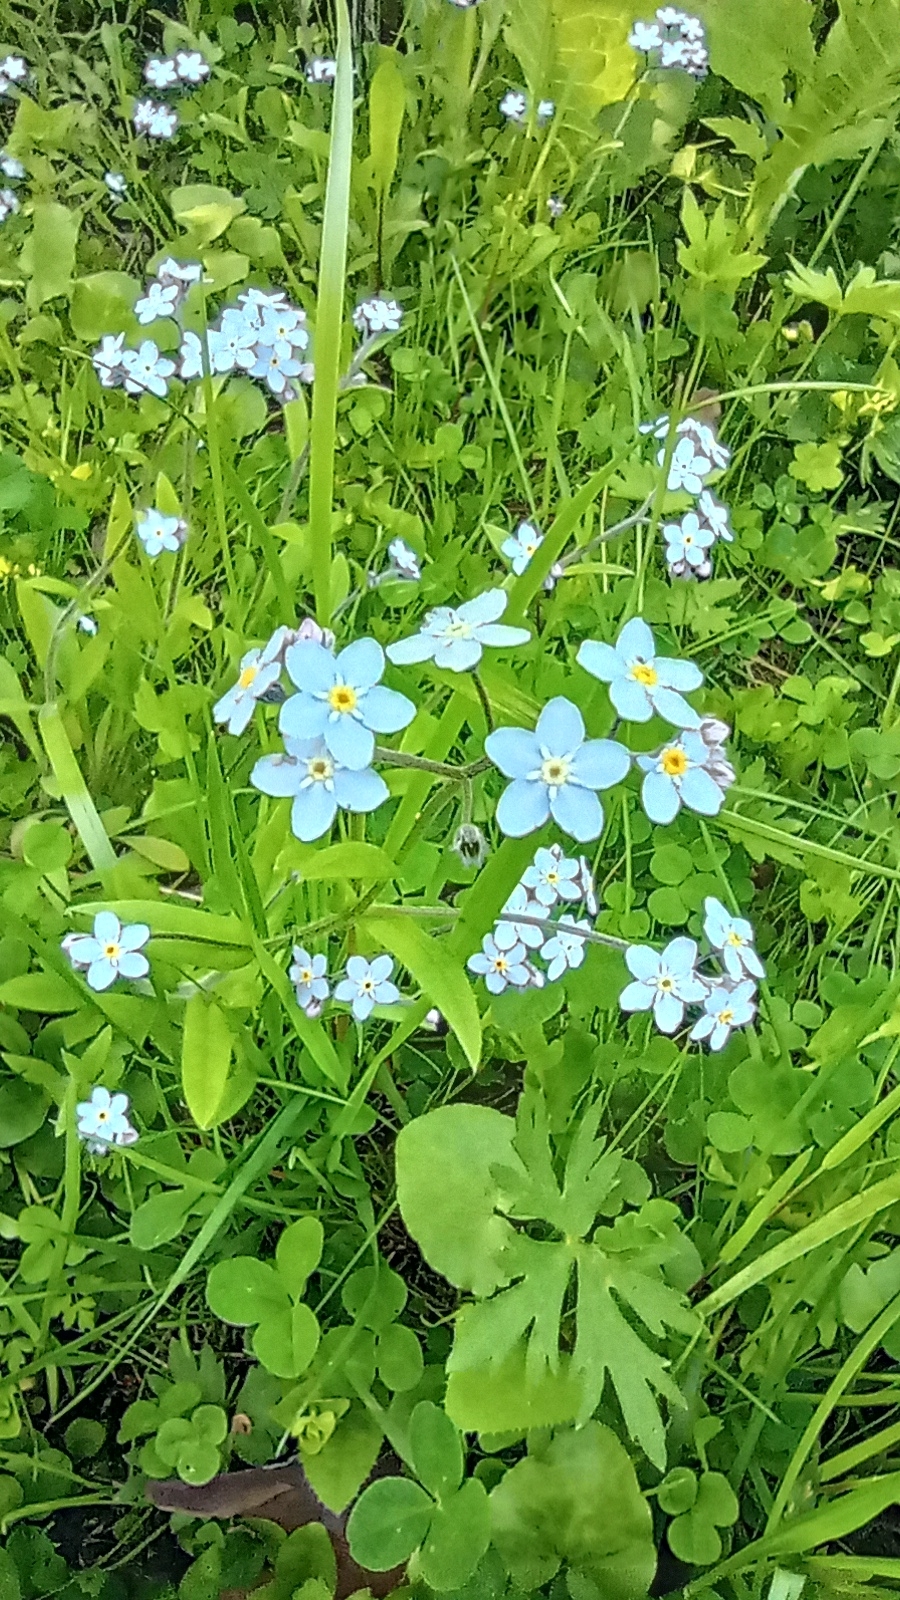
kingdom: Plantae
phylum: Tracheophyta
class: Magnoliopsida
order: Boraginales
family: Boraginaceae
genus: Myosotis
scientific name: Myosotis sylvatica
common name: Wood forget-me-not
